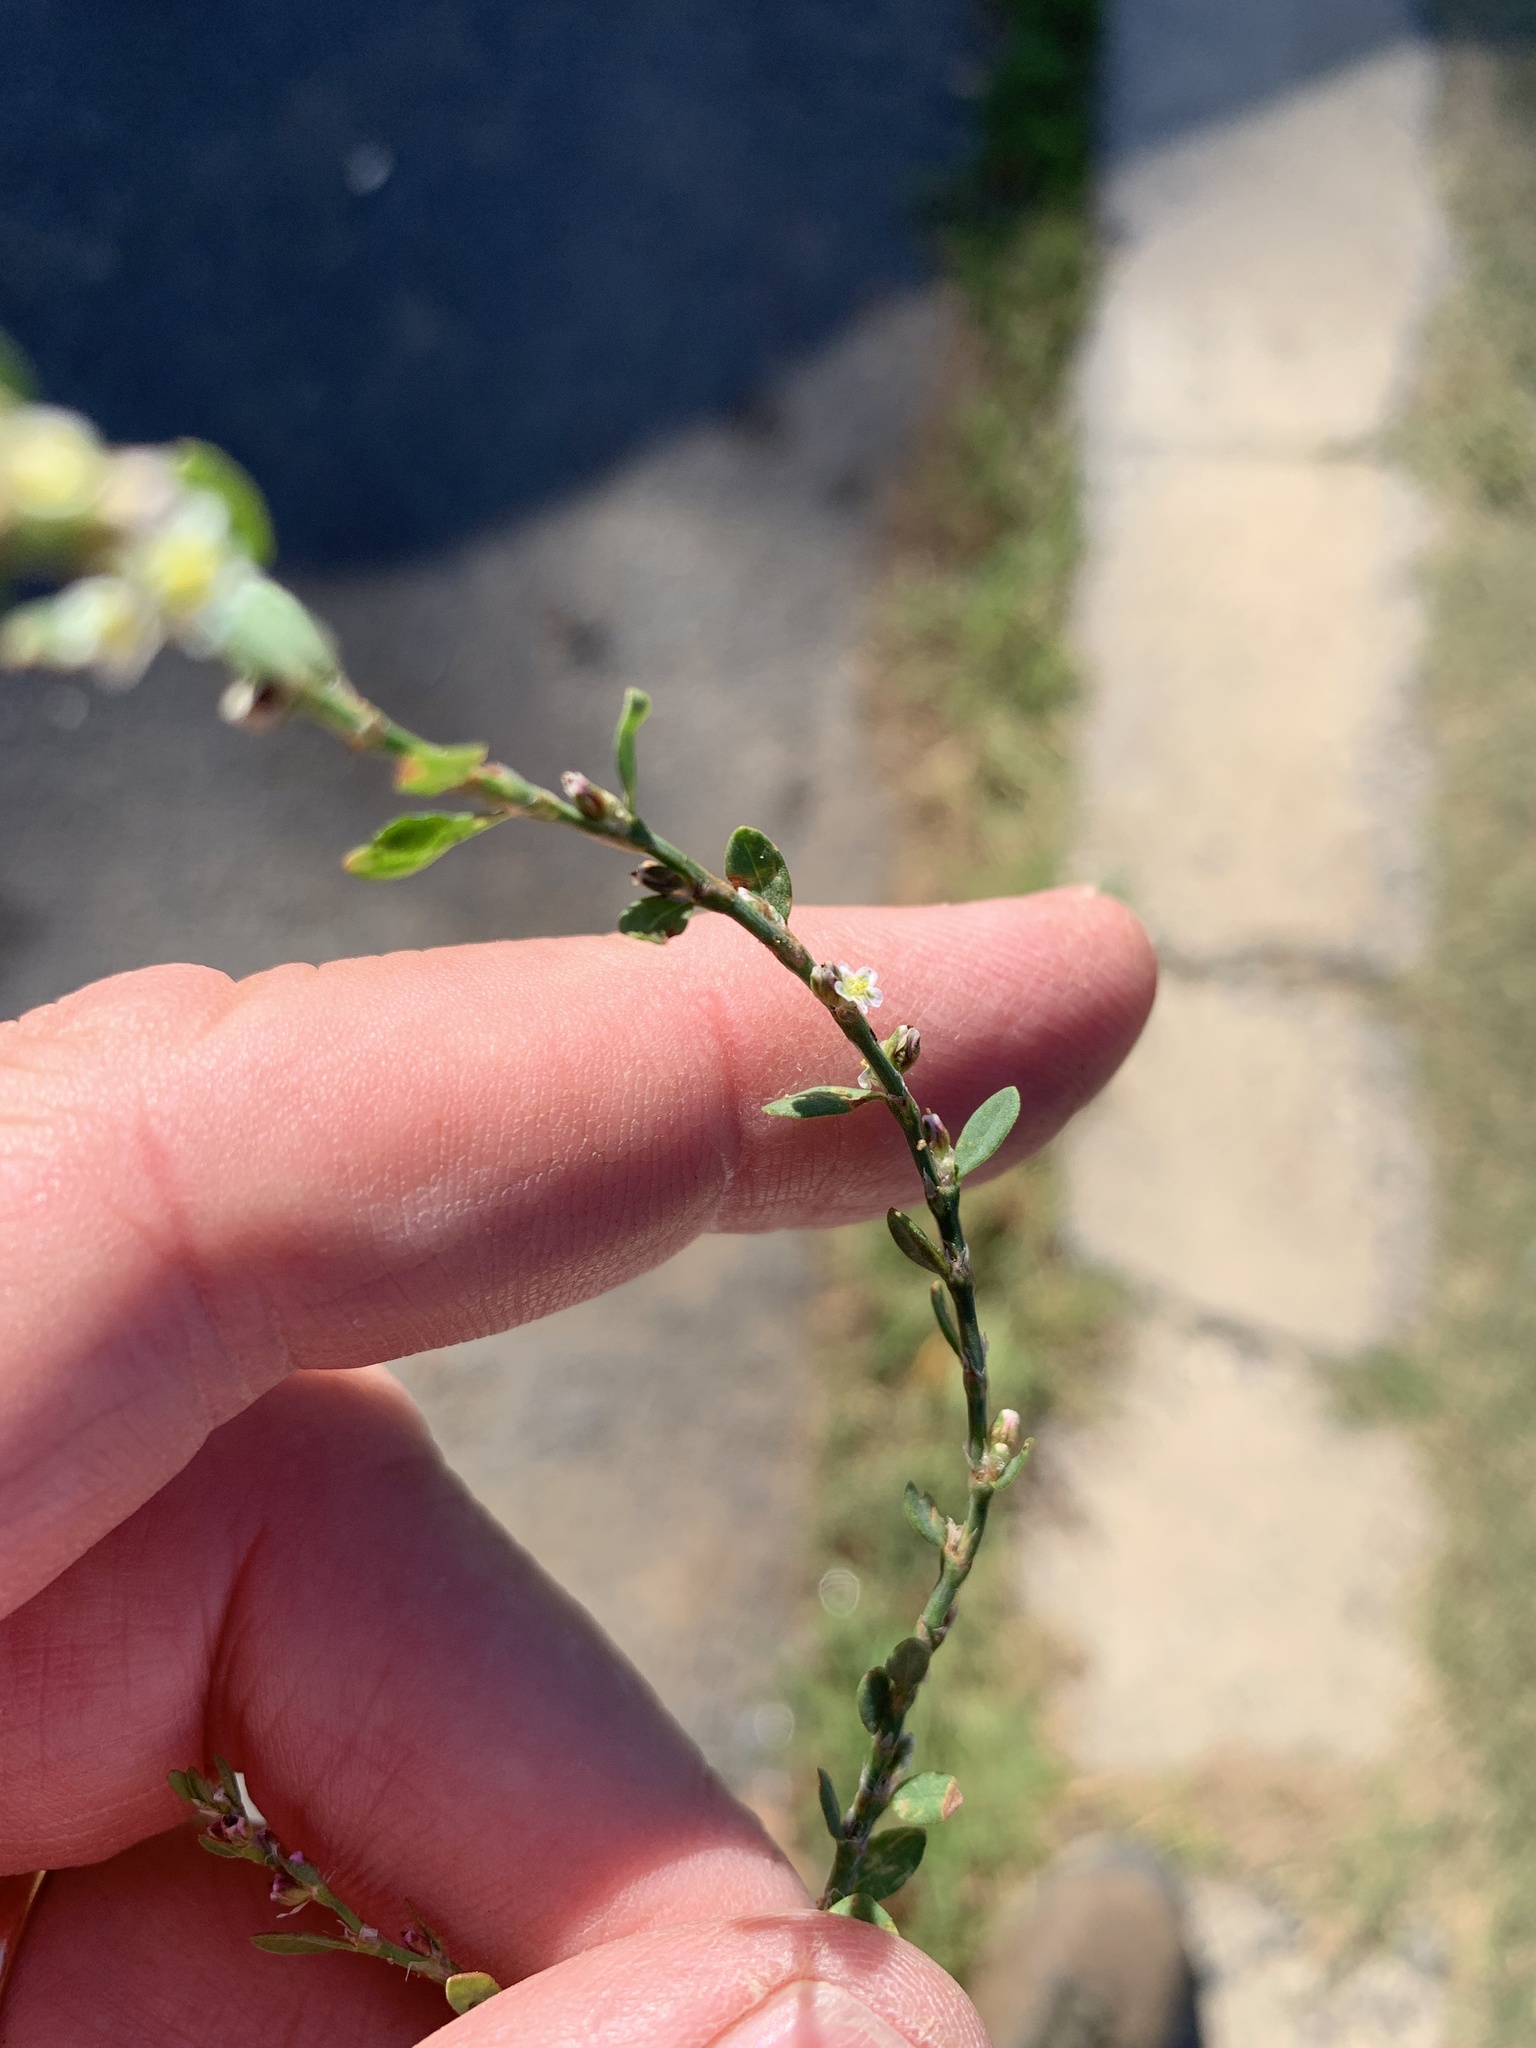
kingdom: Plantae
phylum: Tracheophyta
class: Magnoliopsida
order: Caryophyllales
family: Polygonaceae
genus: Polygonum
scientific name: Polygonum aviculare
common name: Prostrate knotweed
